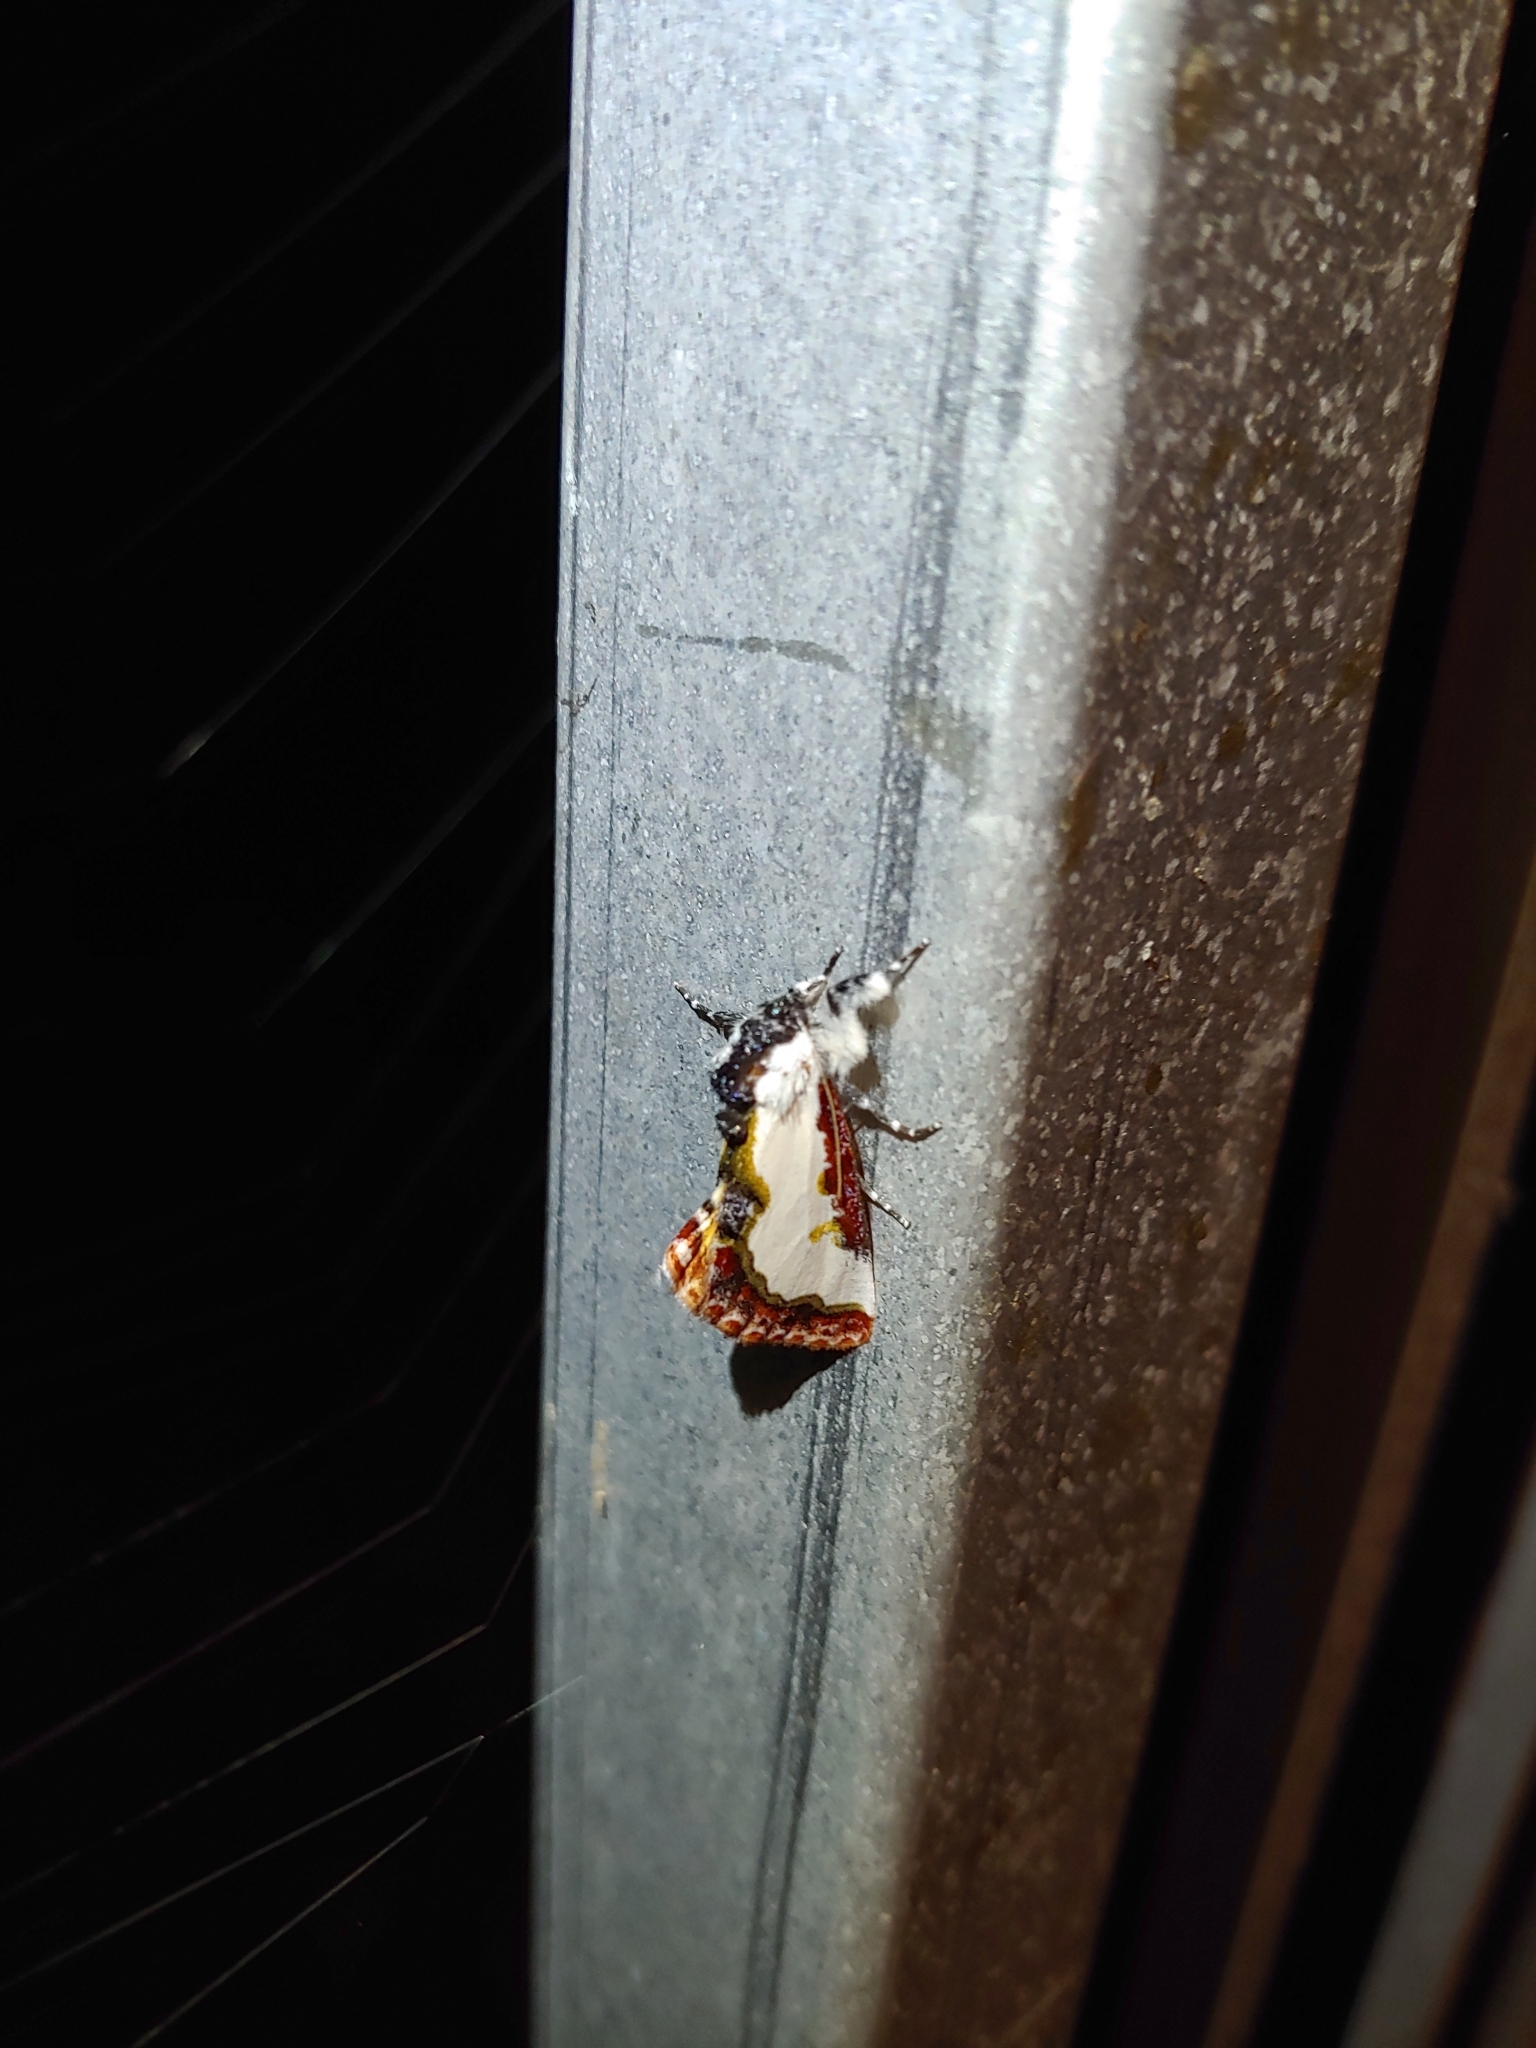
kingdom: Animalia
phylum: Arthropoda
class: Insecta
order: Lepidoptera
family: Noctuidae
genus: Eudryas
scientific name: Eudryas unio
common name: Pearly wood-nymph
